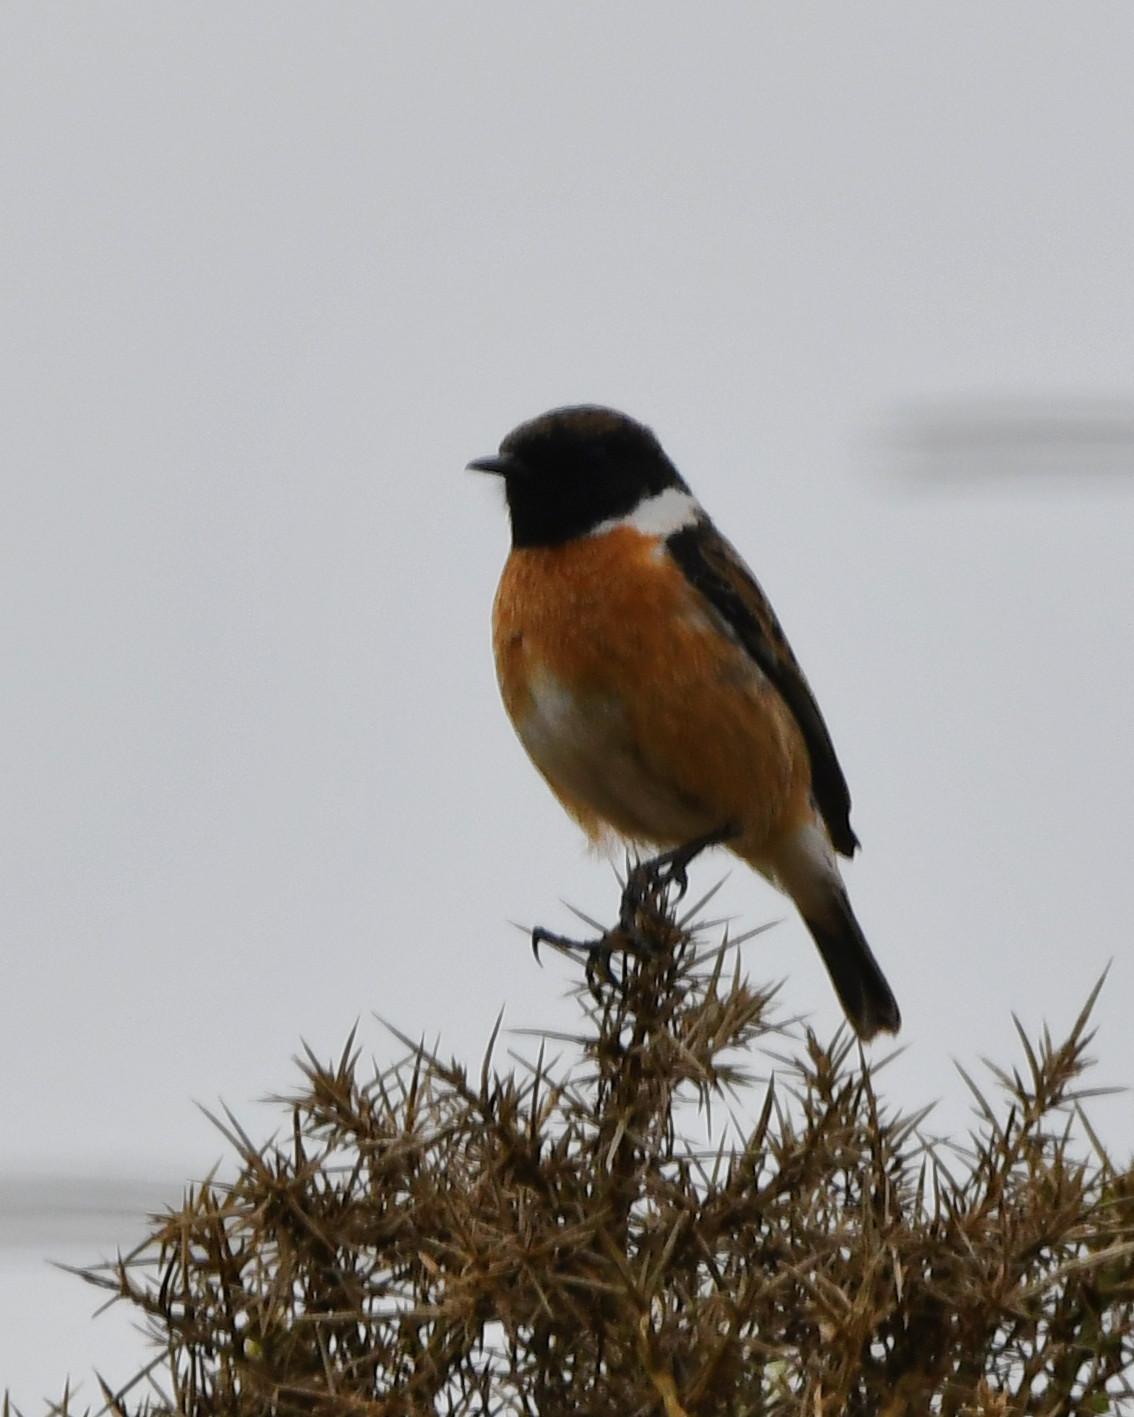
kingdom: Animalia
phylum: Chordata
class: Aves
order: Passeriformes
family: Muscicapidae
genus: Saxicola
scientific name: Saxicola rubicola
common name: European stonechat
